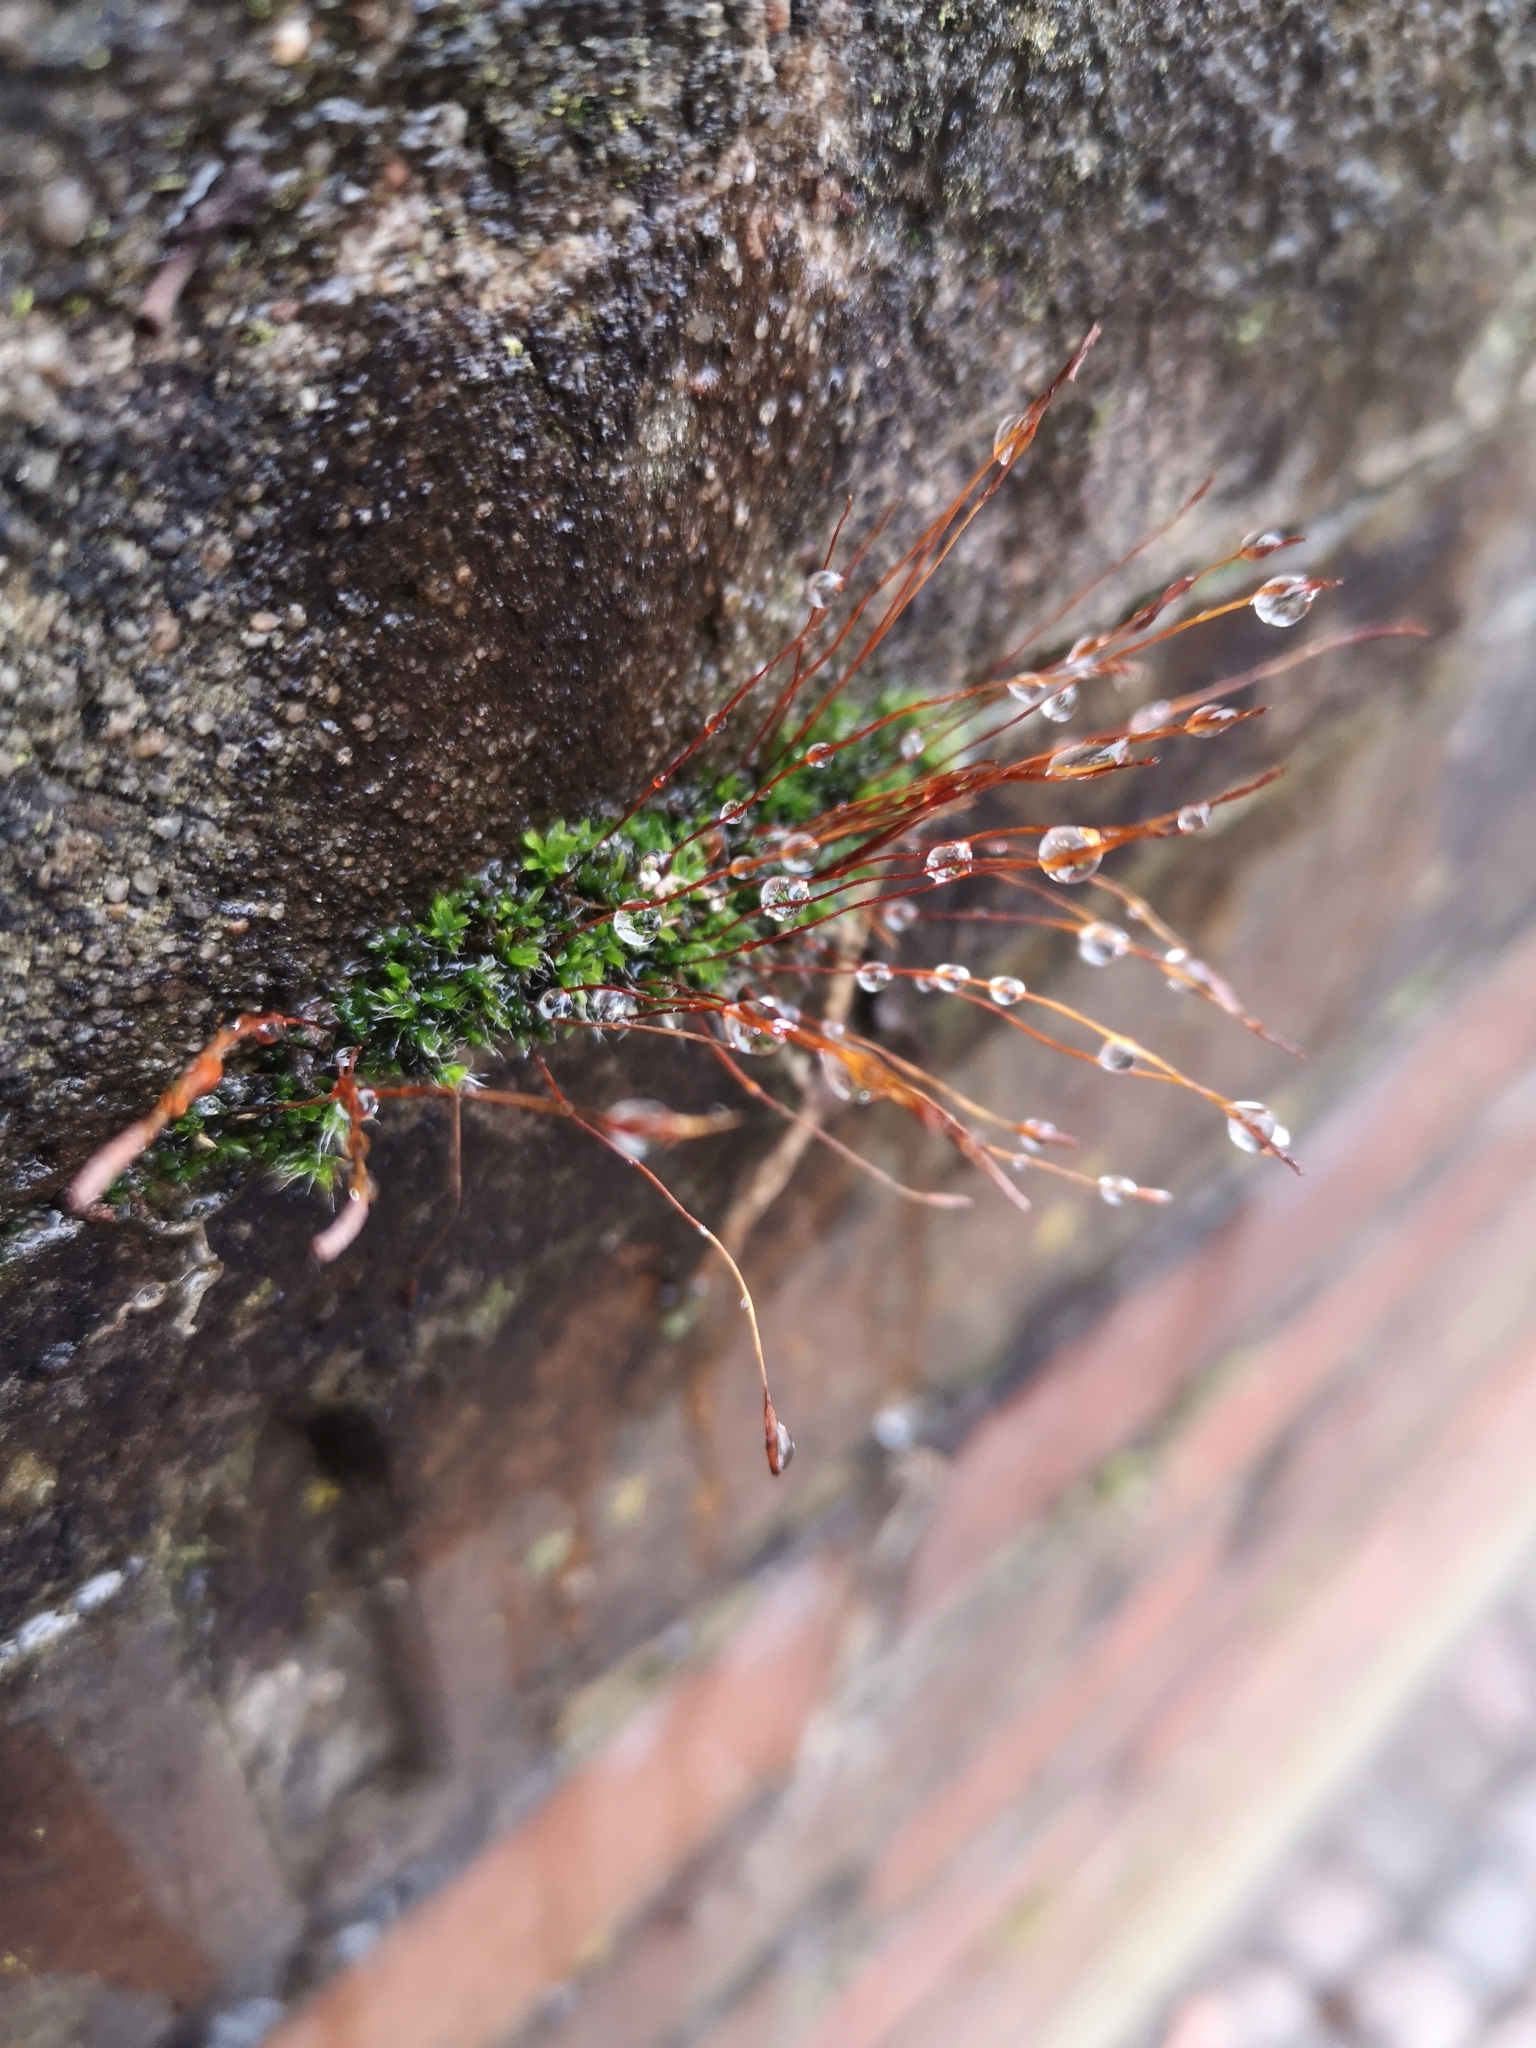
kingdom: Plantae
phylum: Bryophyta
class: Bryopsida
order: Pottiales
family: Pottiaceae
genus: Tortula
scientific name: Tortula muralis
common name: Wall screw-moss
